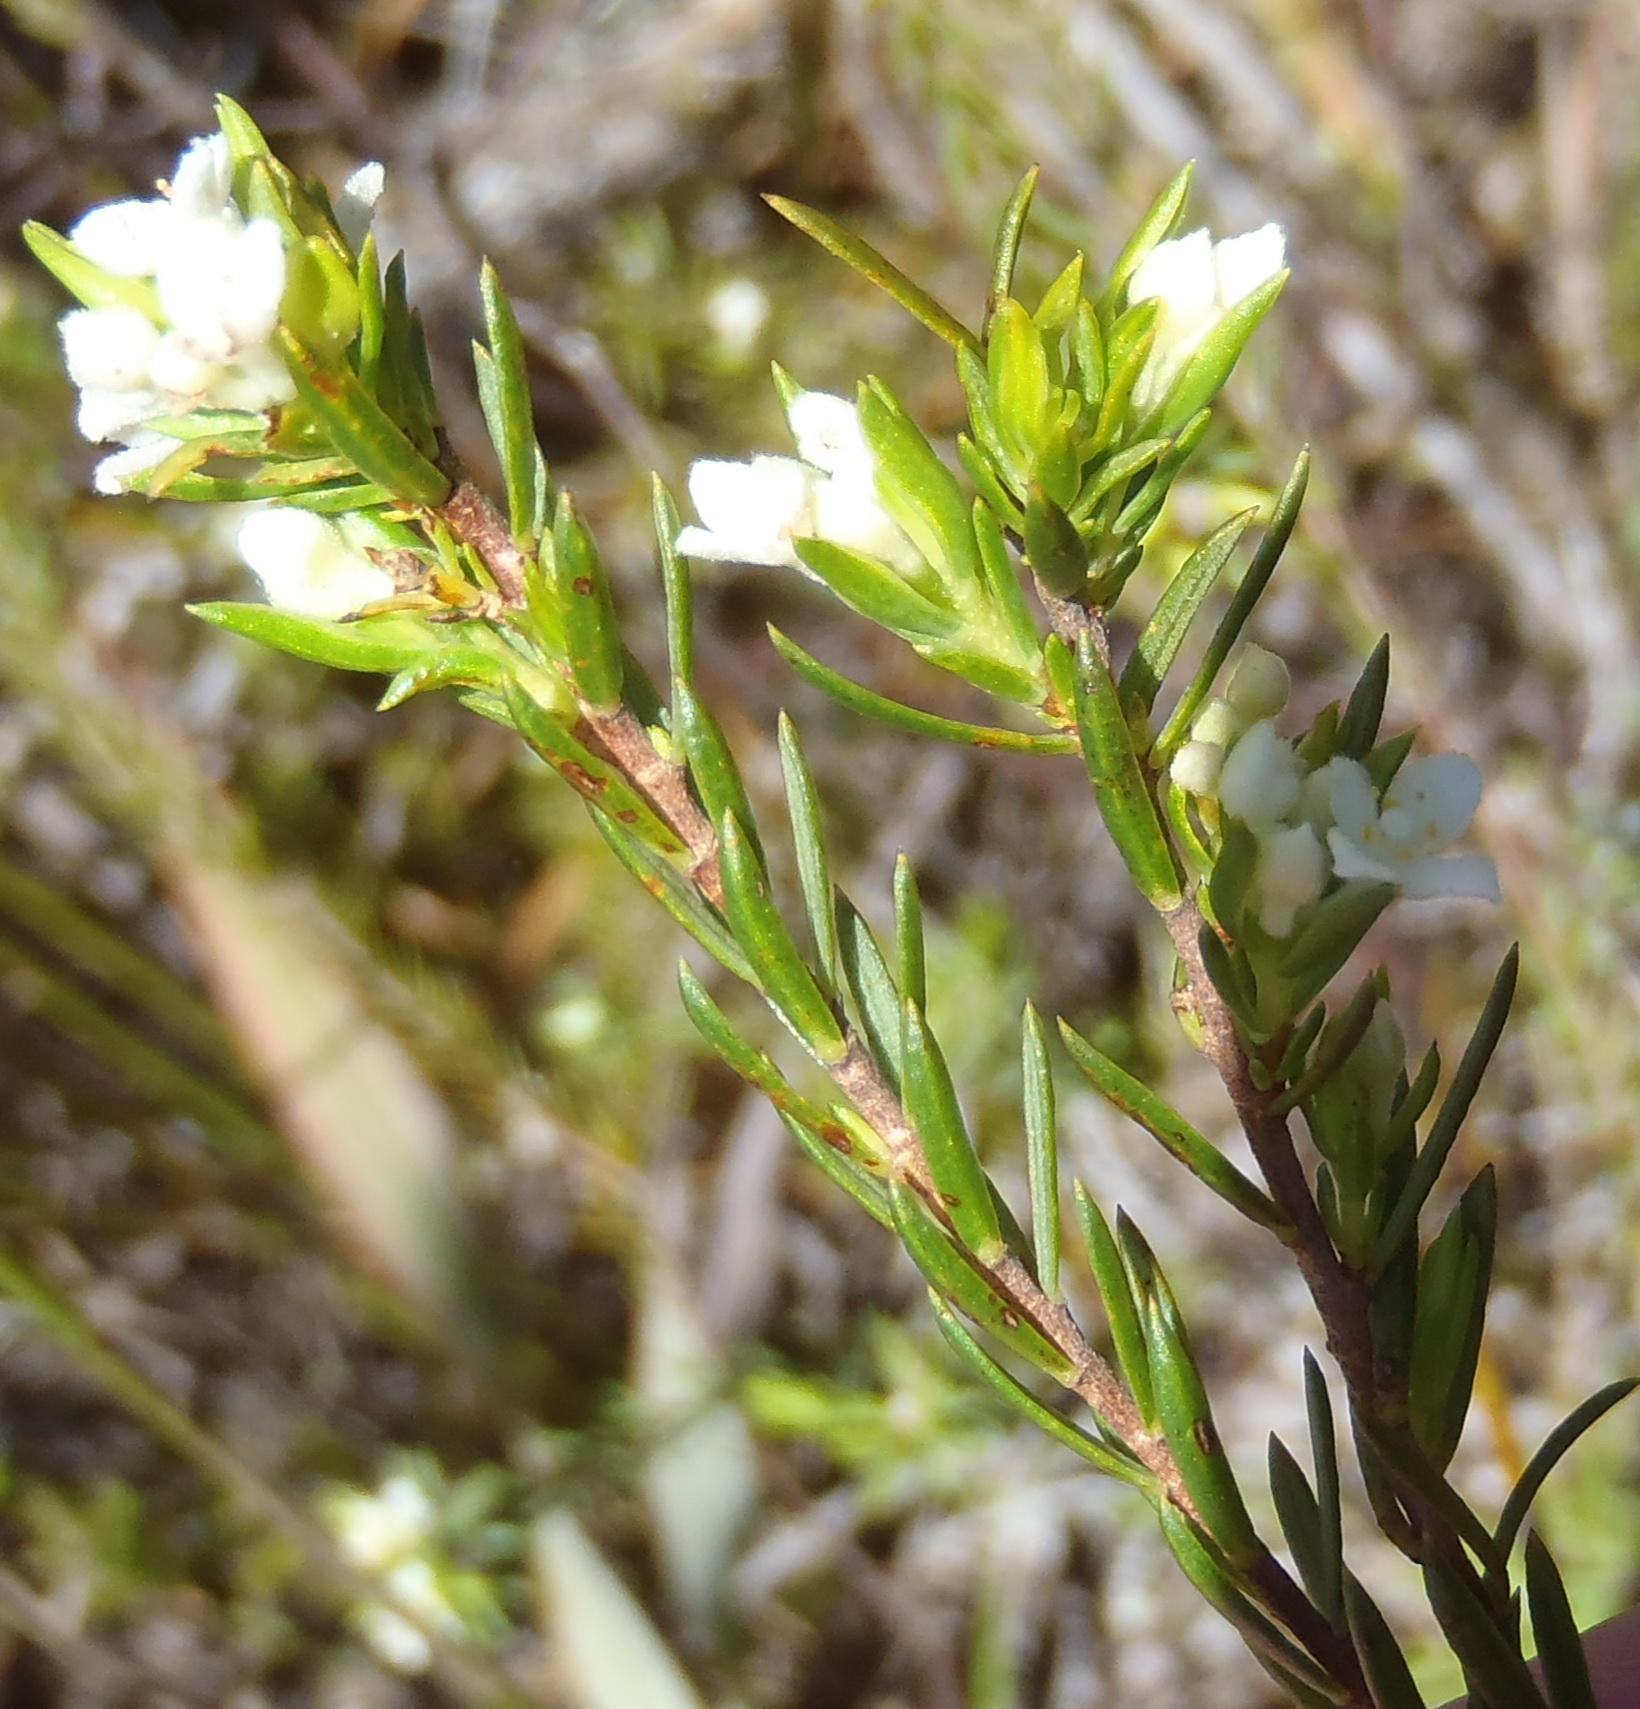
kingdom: Plantae
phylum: Tracheophyta
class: Magnoliopsida
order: Malvales
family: Thymelaeaceae
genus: Lachnaea
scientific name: Lachnaea diosmoides
